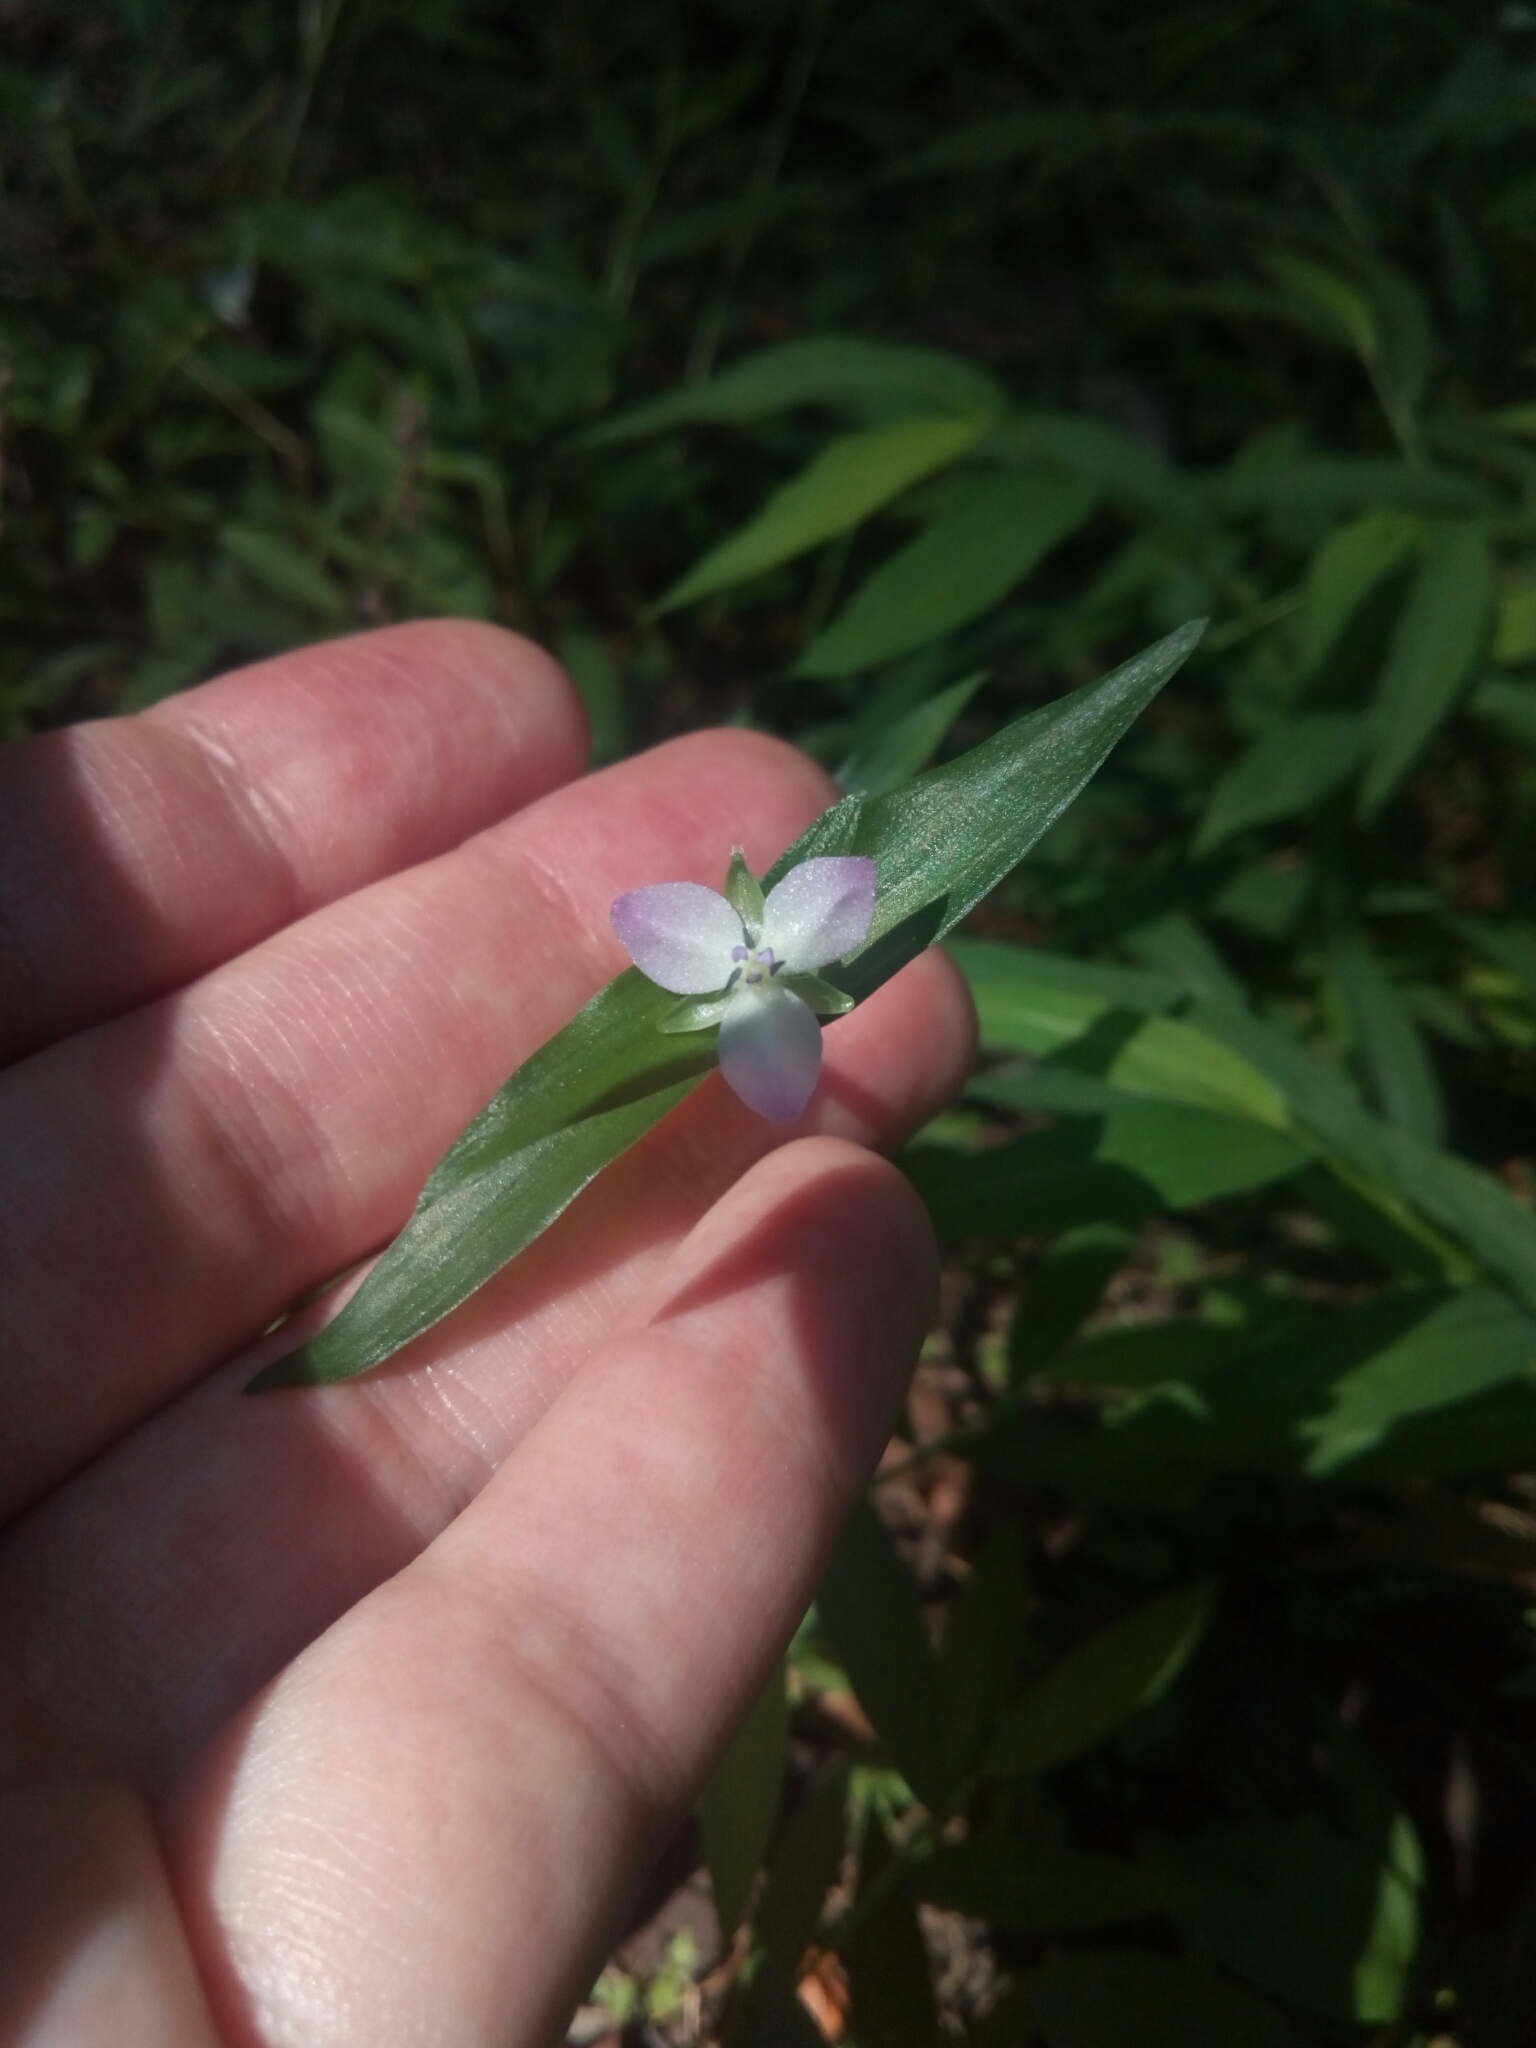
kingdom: Plantae
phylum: Tracheophyta
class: Liliopsida
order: Commelinales
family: Commelinaceae
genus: Murdannia
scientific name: Murdannia keisak
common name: Wartremoving herb
